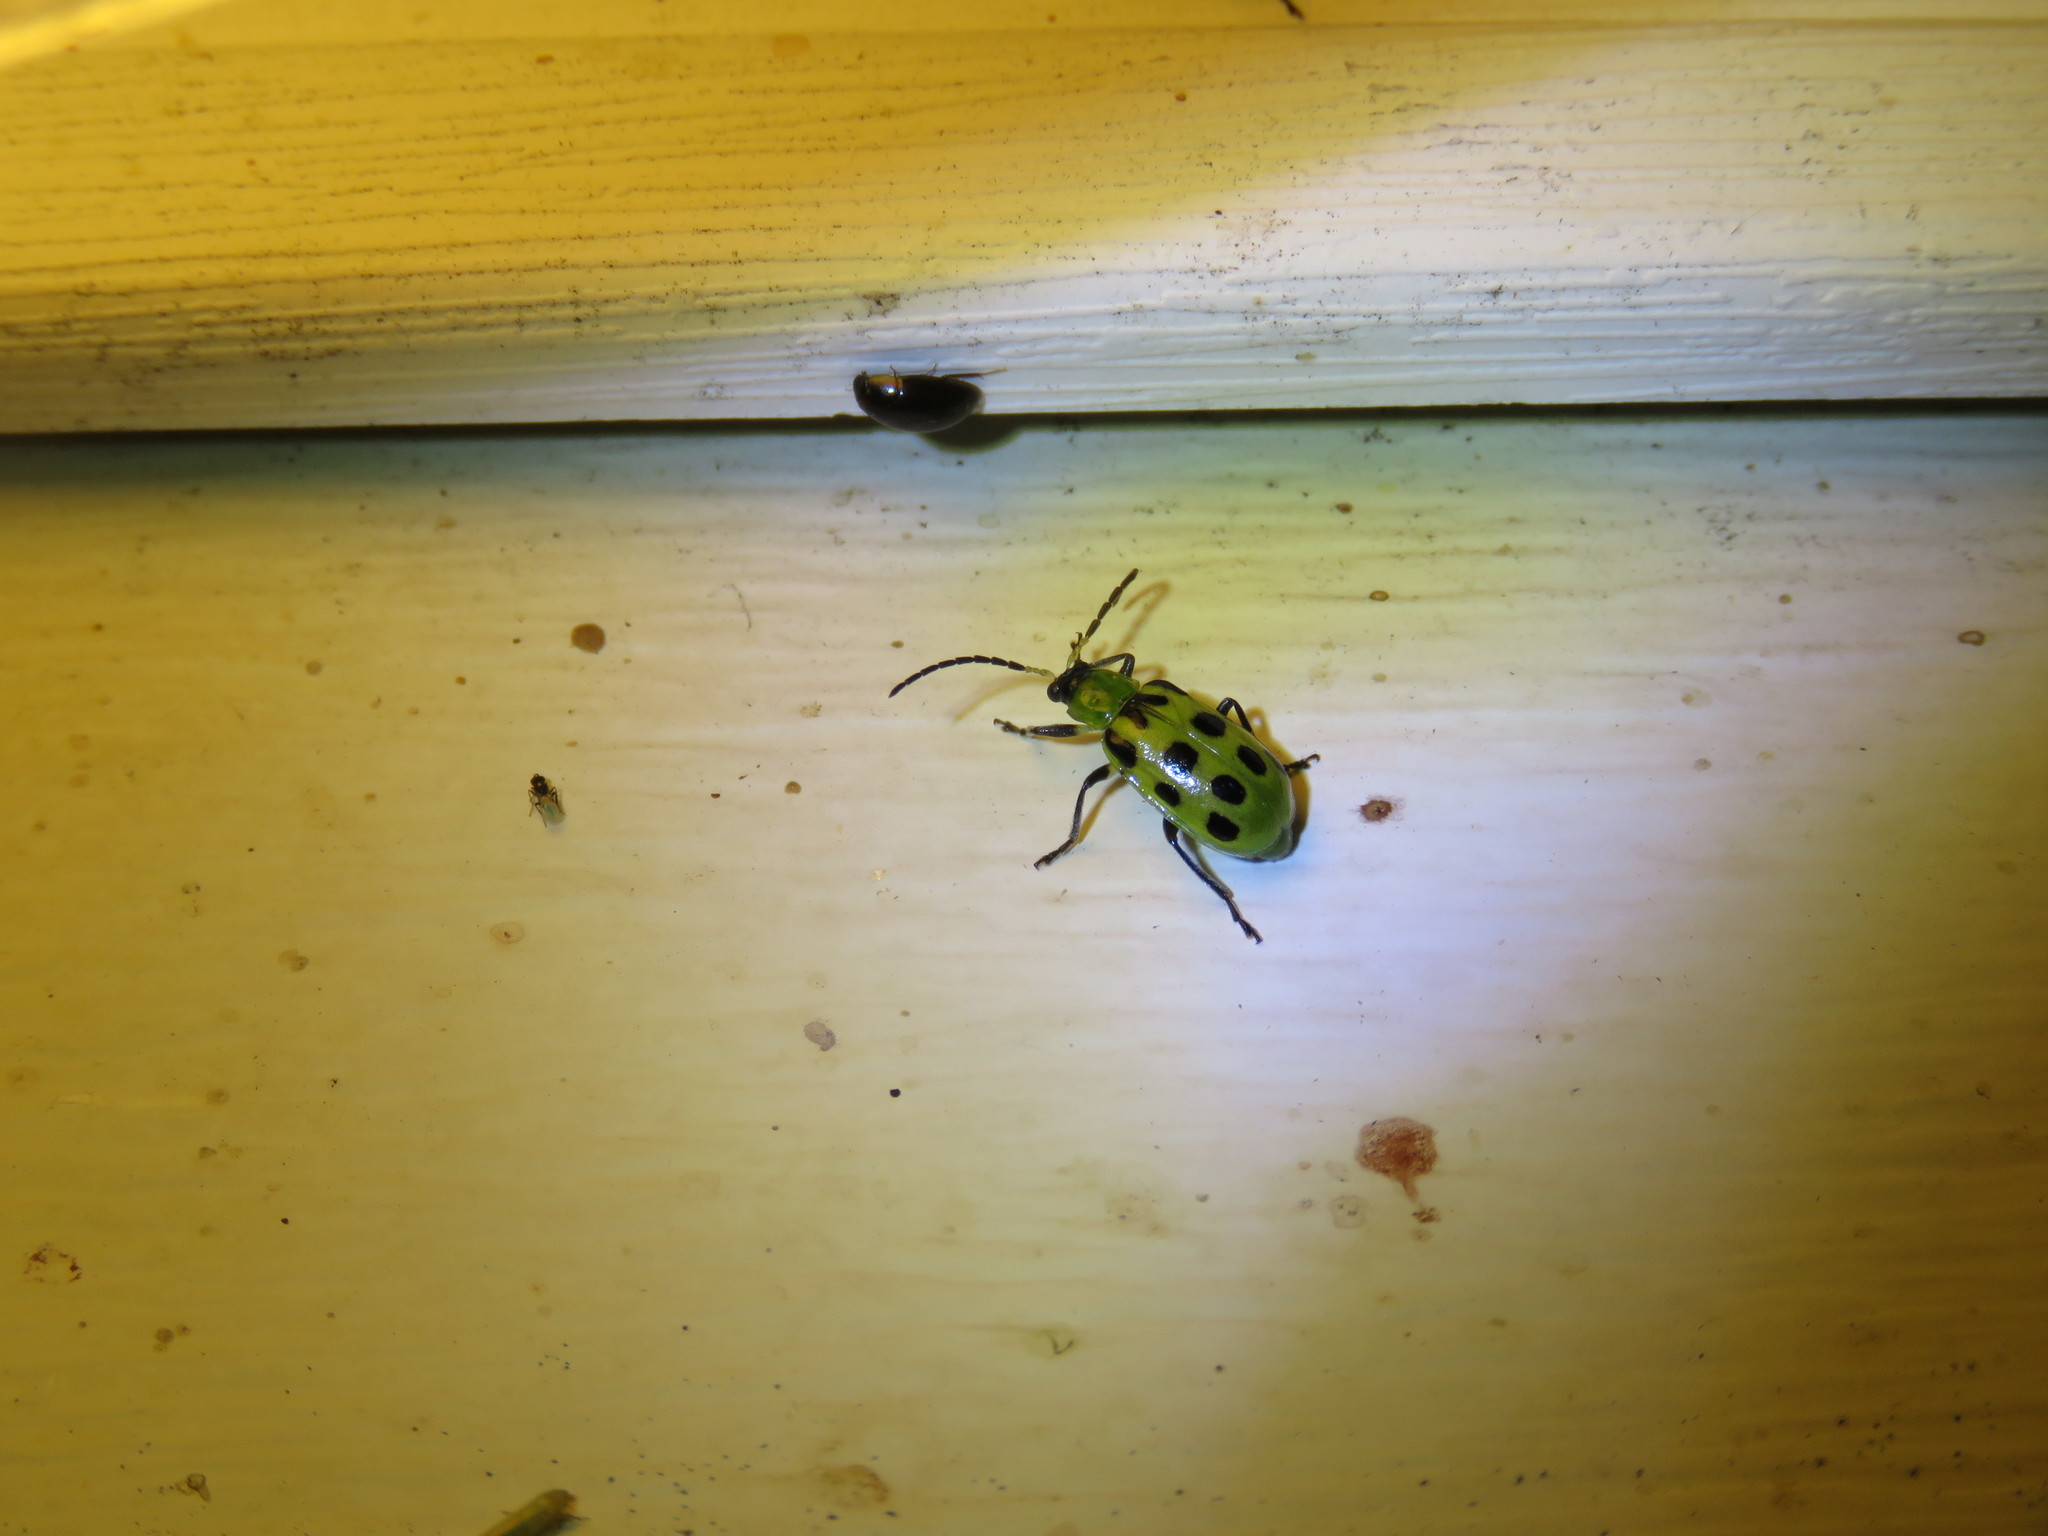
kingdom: Animalia
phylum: Arthropoda
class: Insecta
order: Coleoptera
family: Chrysomelidae
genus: Diabrotica
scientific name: Diabrotica undecimpunctata
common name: Spotted cucumber beetle
